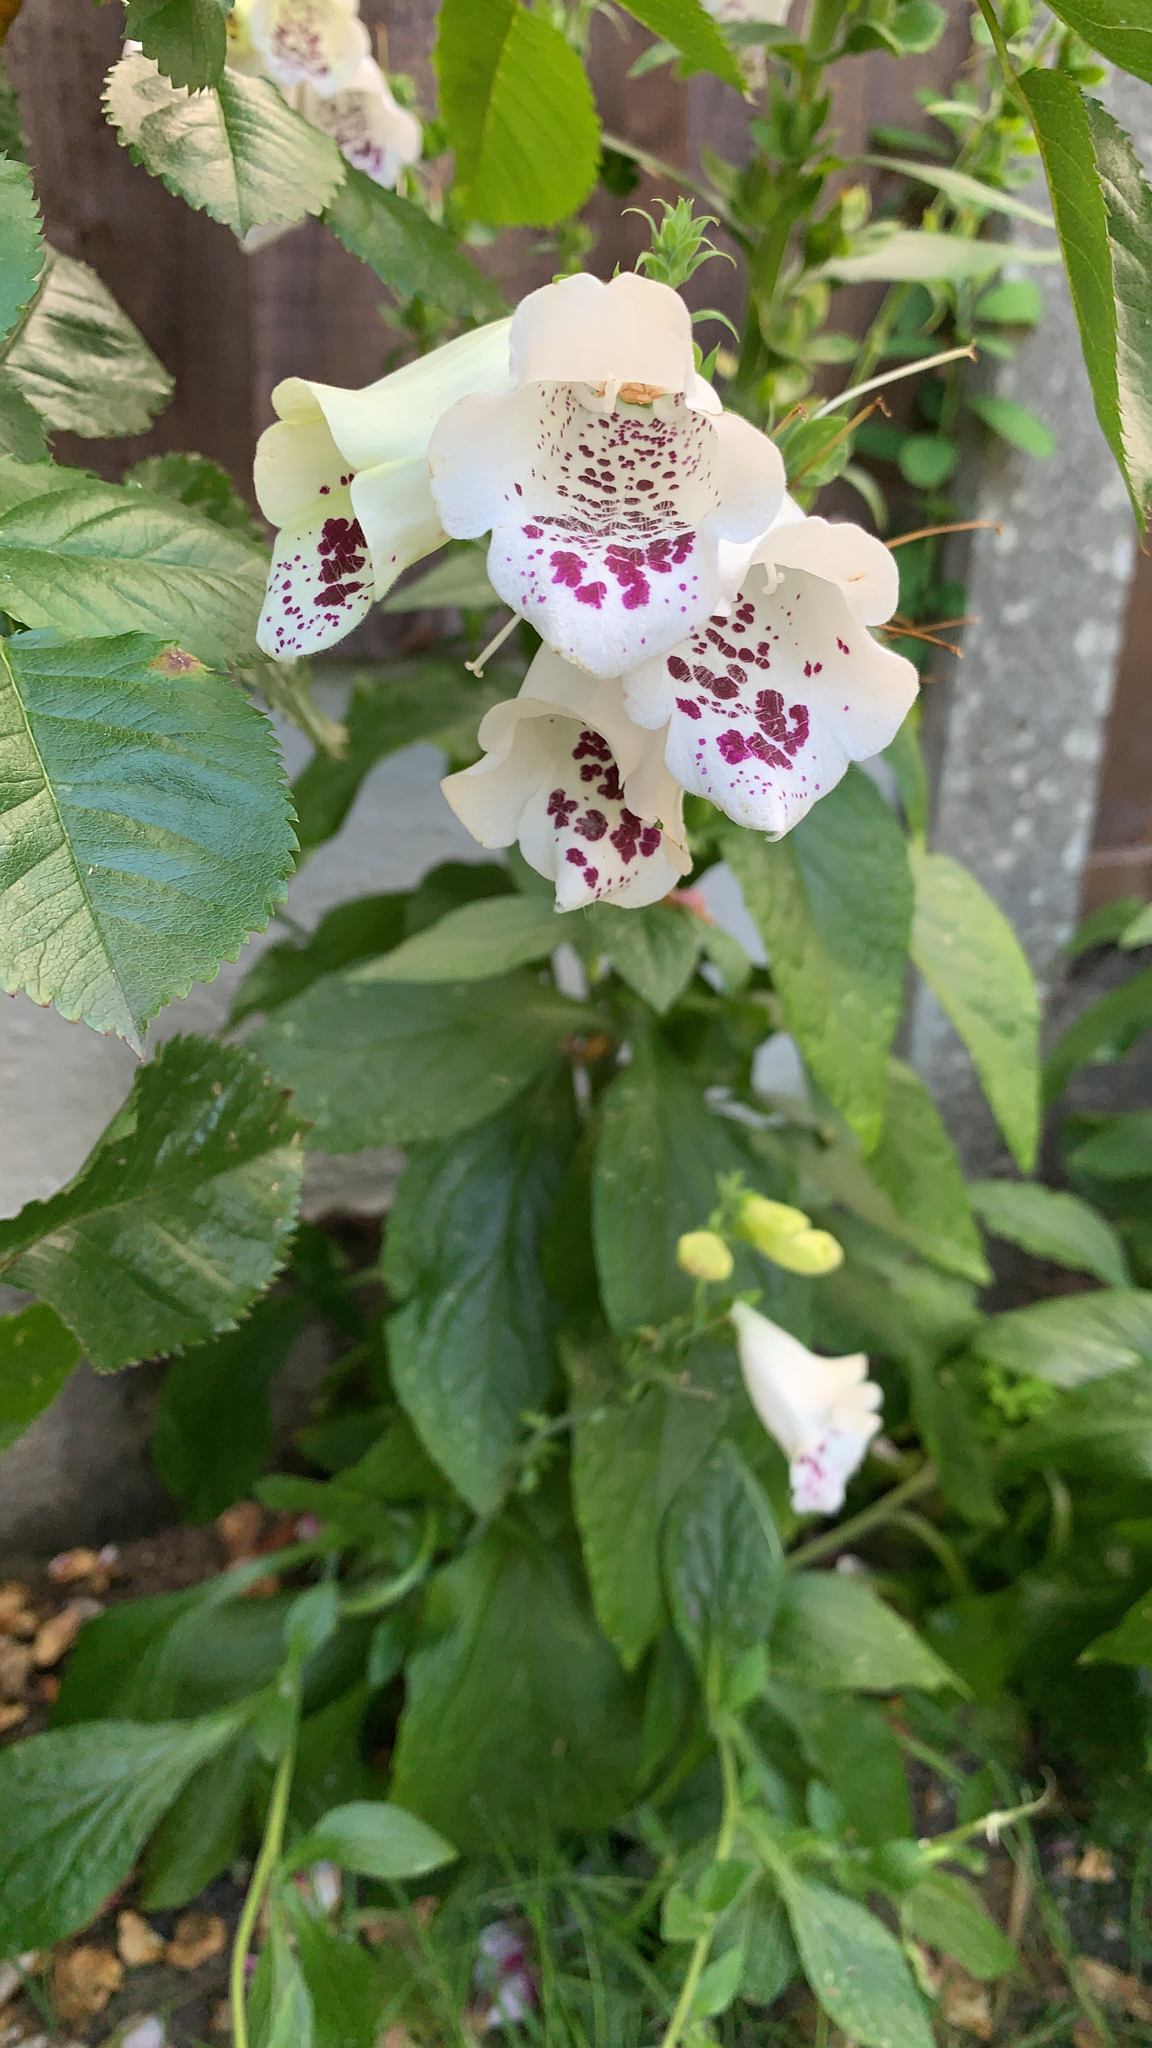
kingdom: Plantae
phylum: Tracheophyta
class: Magnoliopsida
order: Lamiales
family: Plantaginaceae
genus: Digitalis
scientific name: Digitalis purpurea
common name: Foxglove
